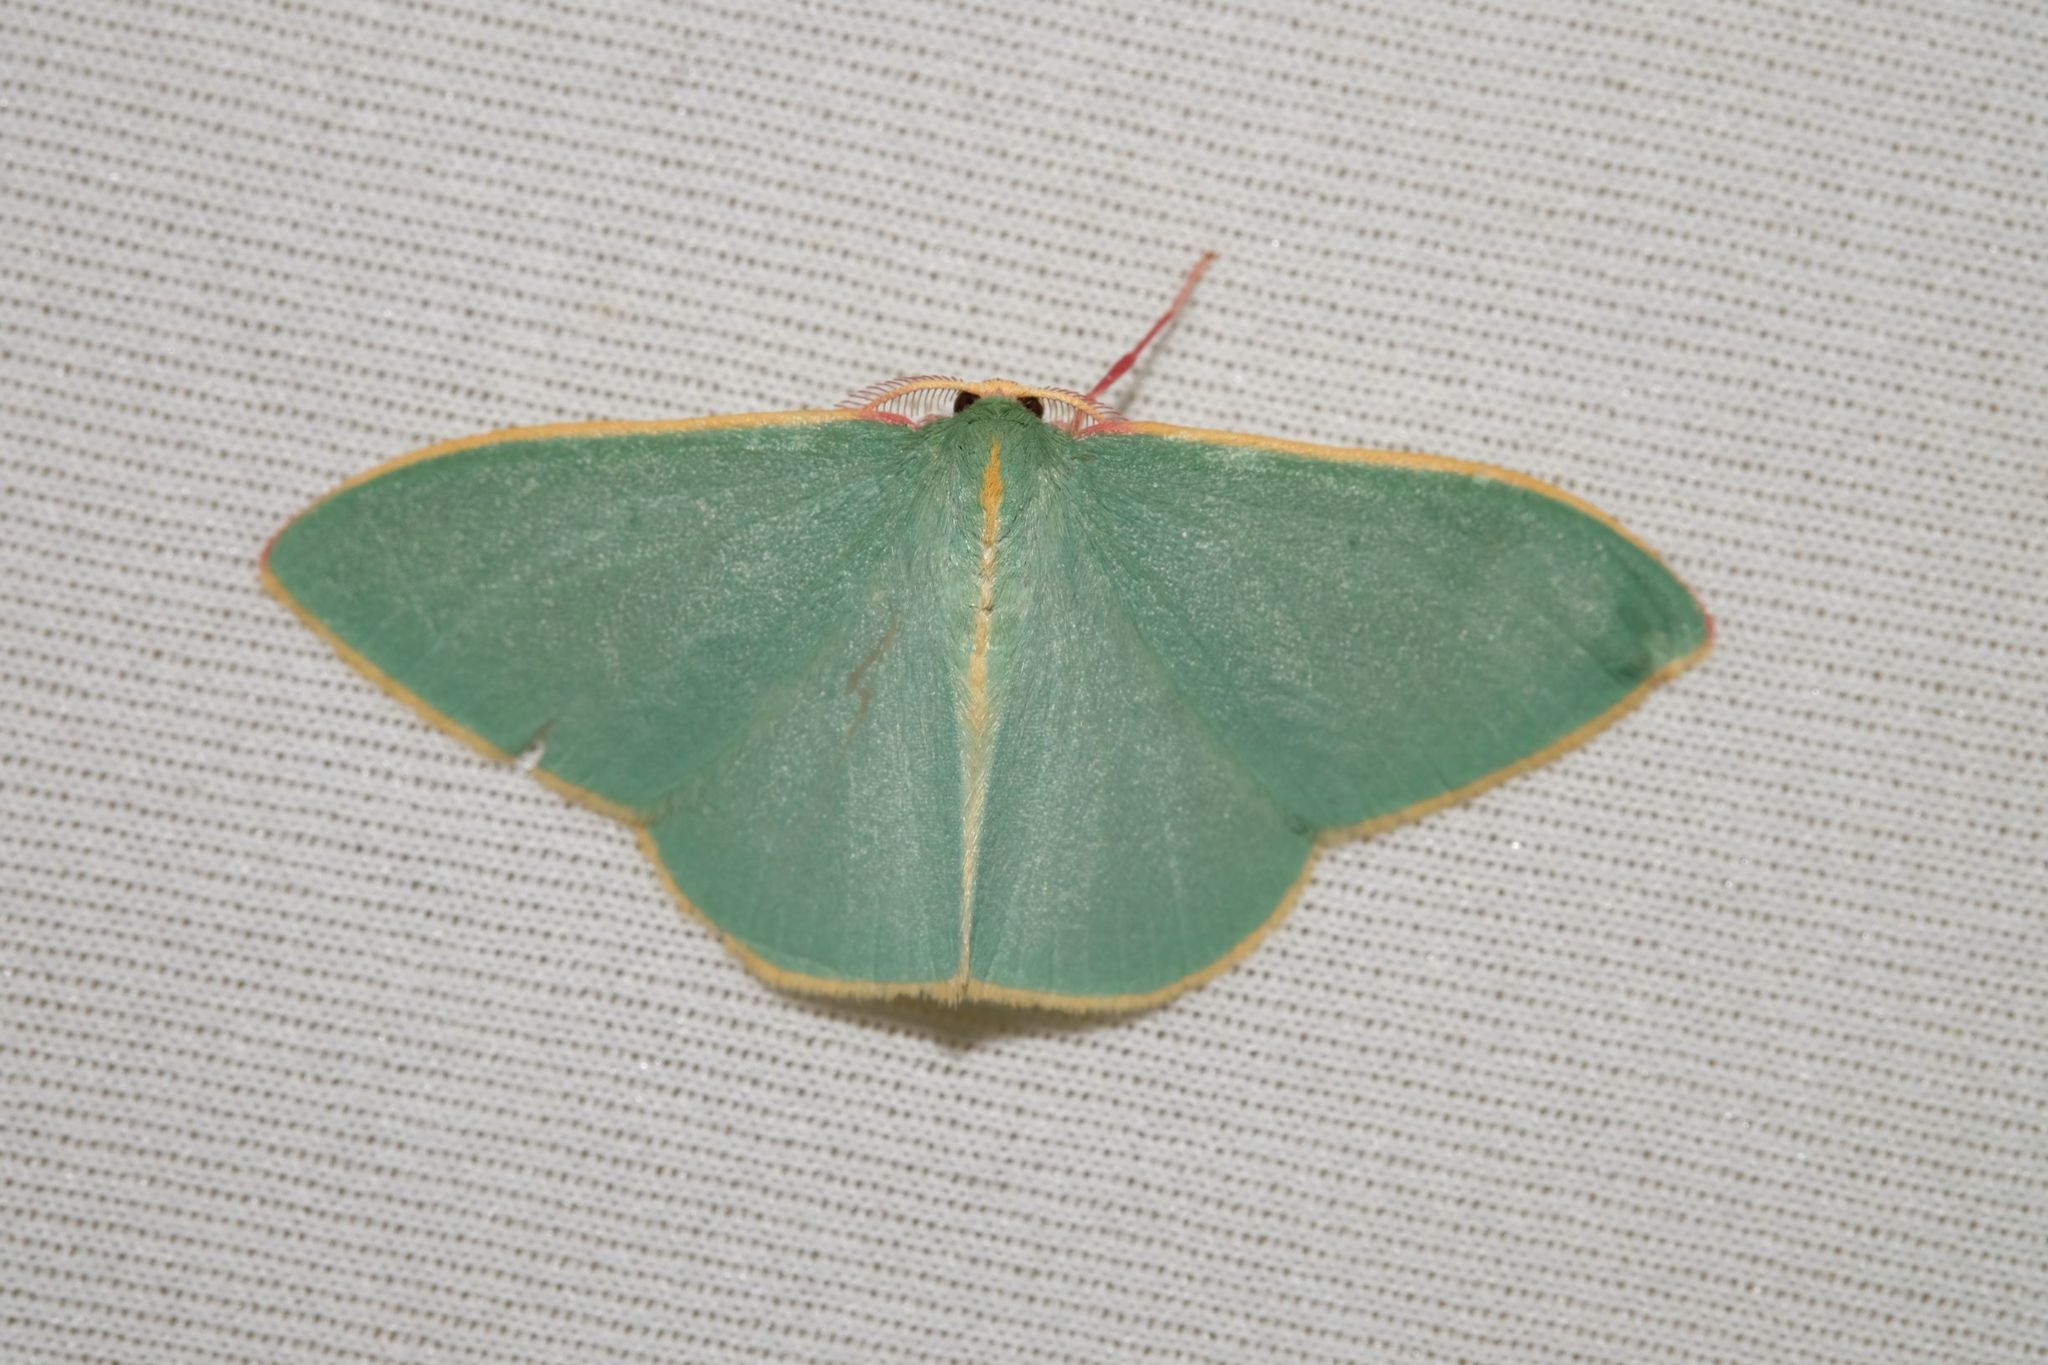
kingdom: Animalia
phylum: Arthropoda
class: Insecta
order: Lepidoptera
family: Geometridae
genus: Chlorocoma
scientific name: Chlorocoma assimilis
